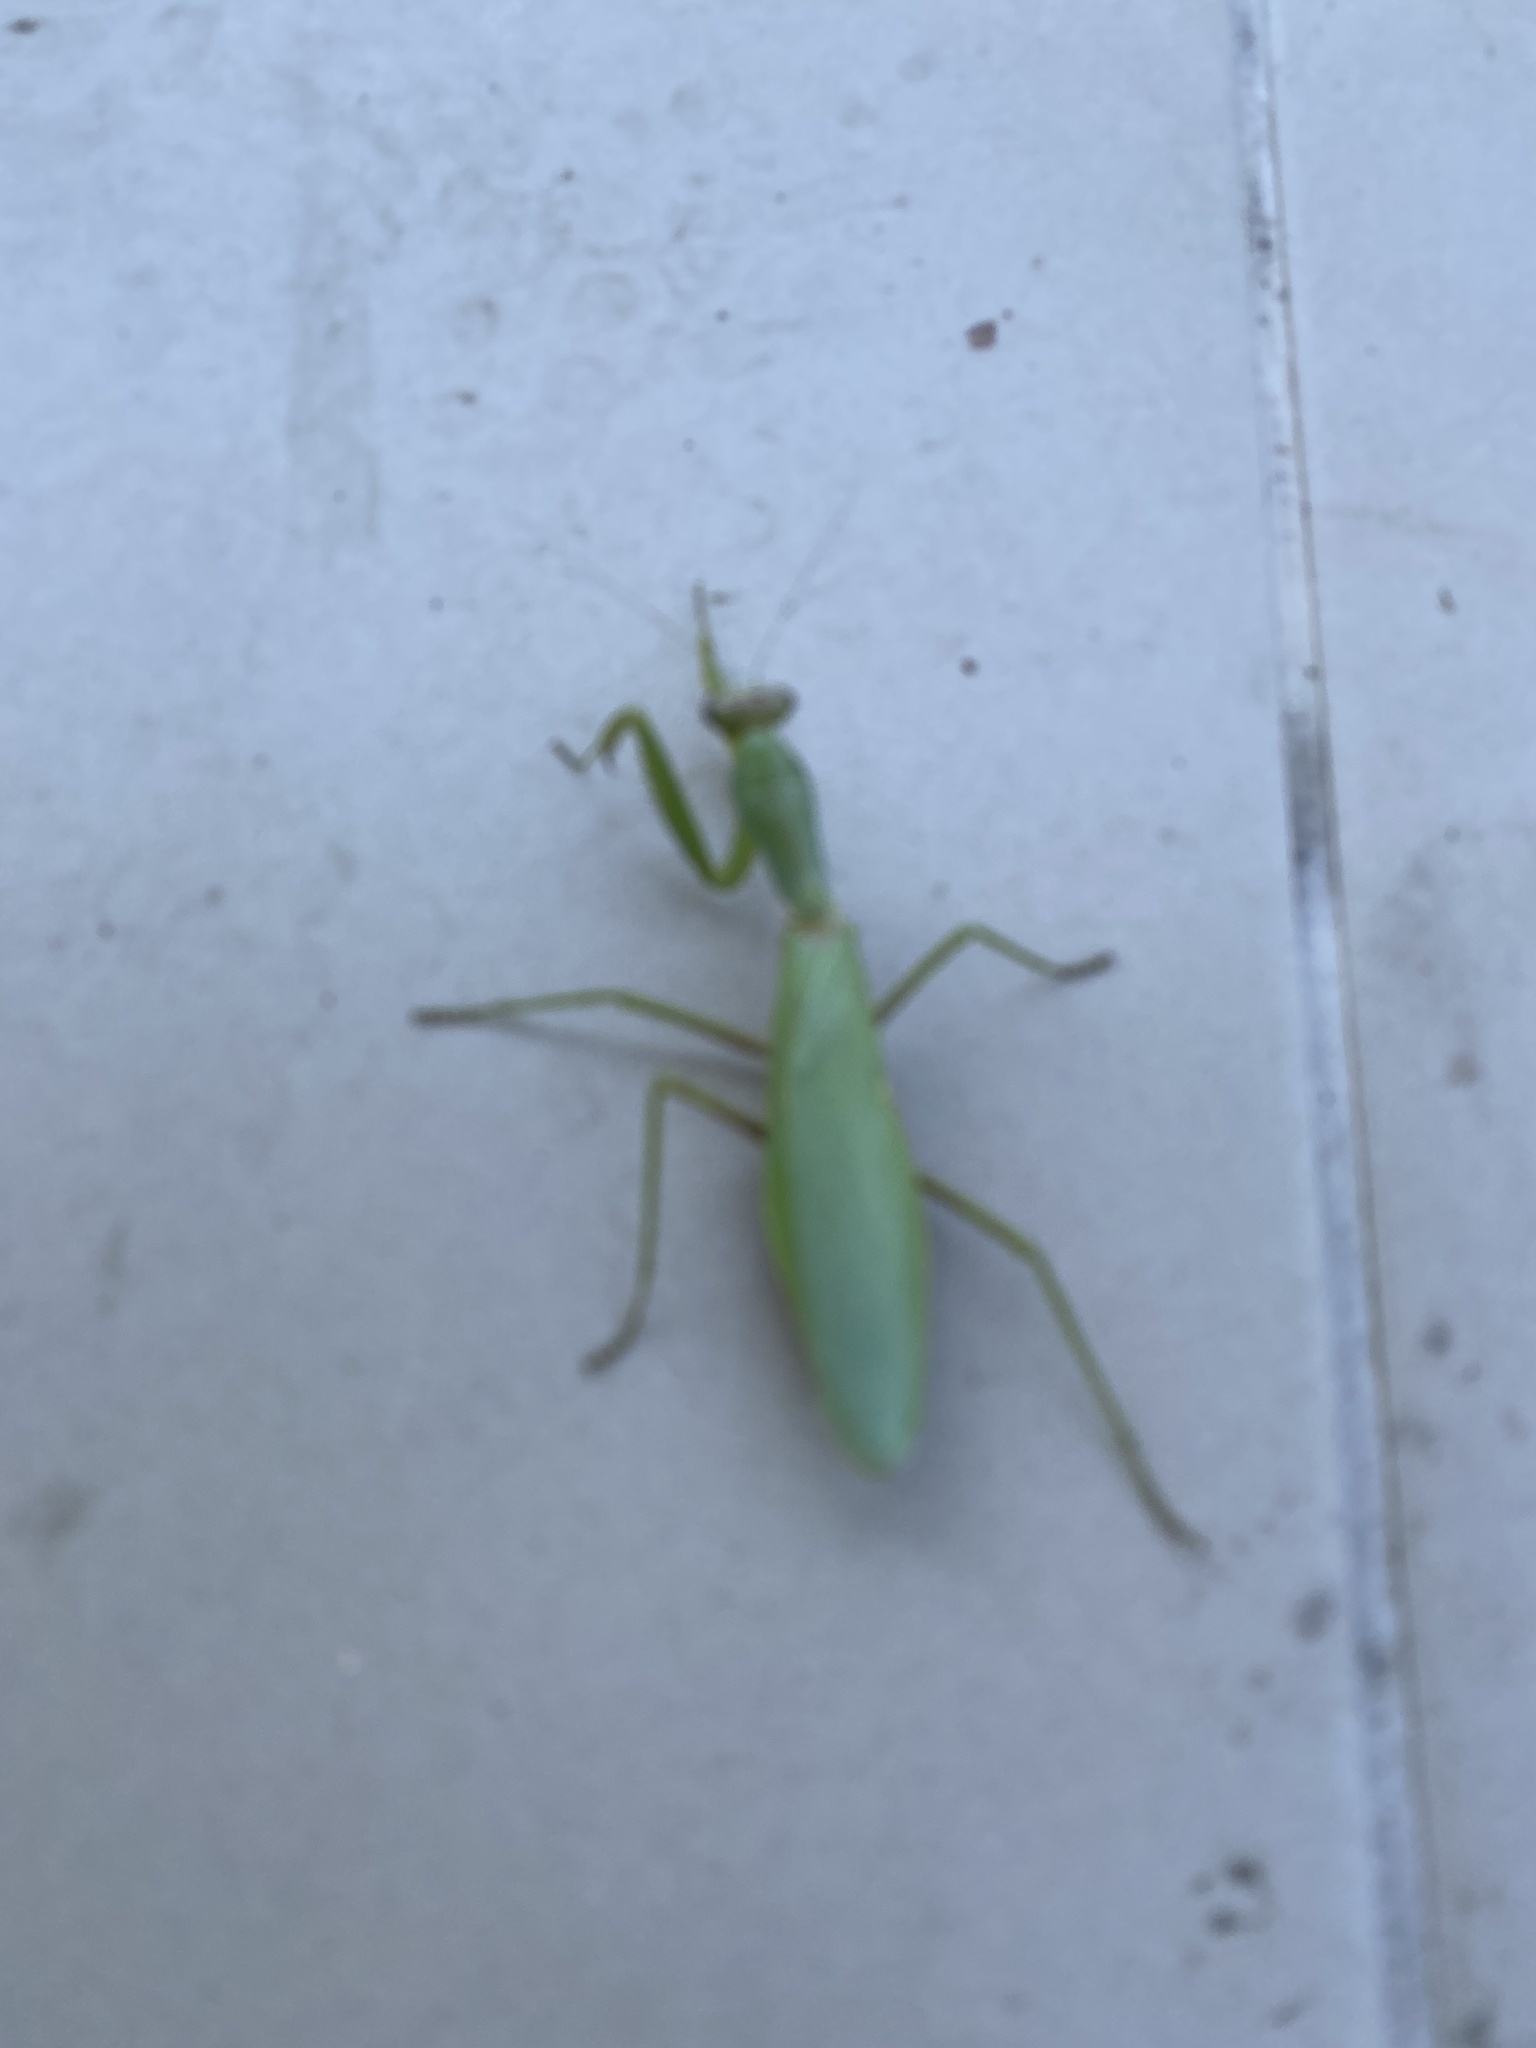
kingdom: Animalia
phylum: Arthropoda
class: Insecta
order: Mantodea
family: Mantidae
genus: Hierodula
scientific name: Hierodula transcaucasica
